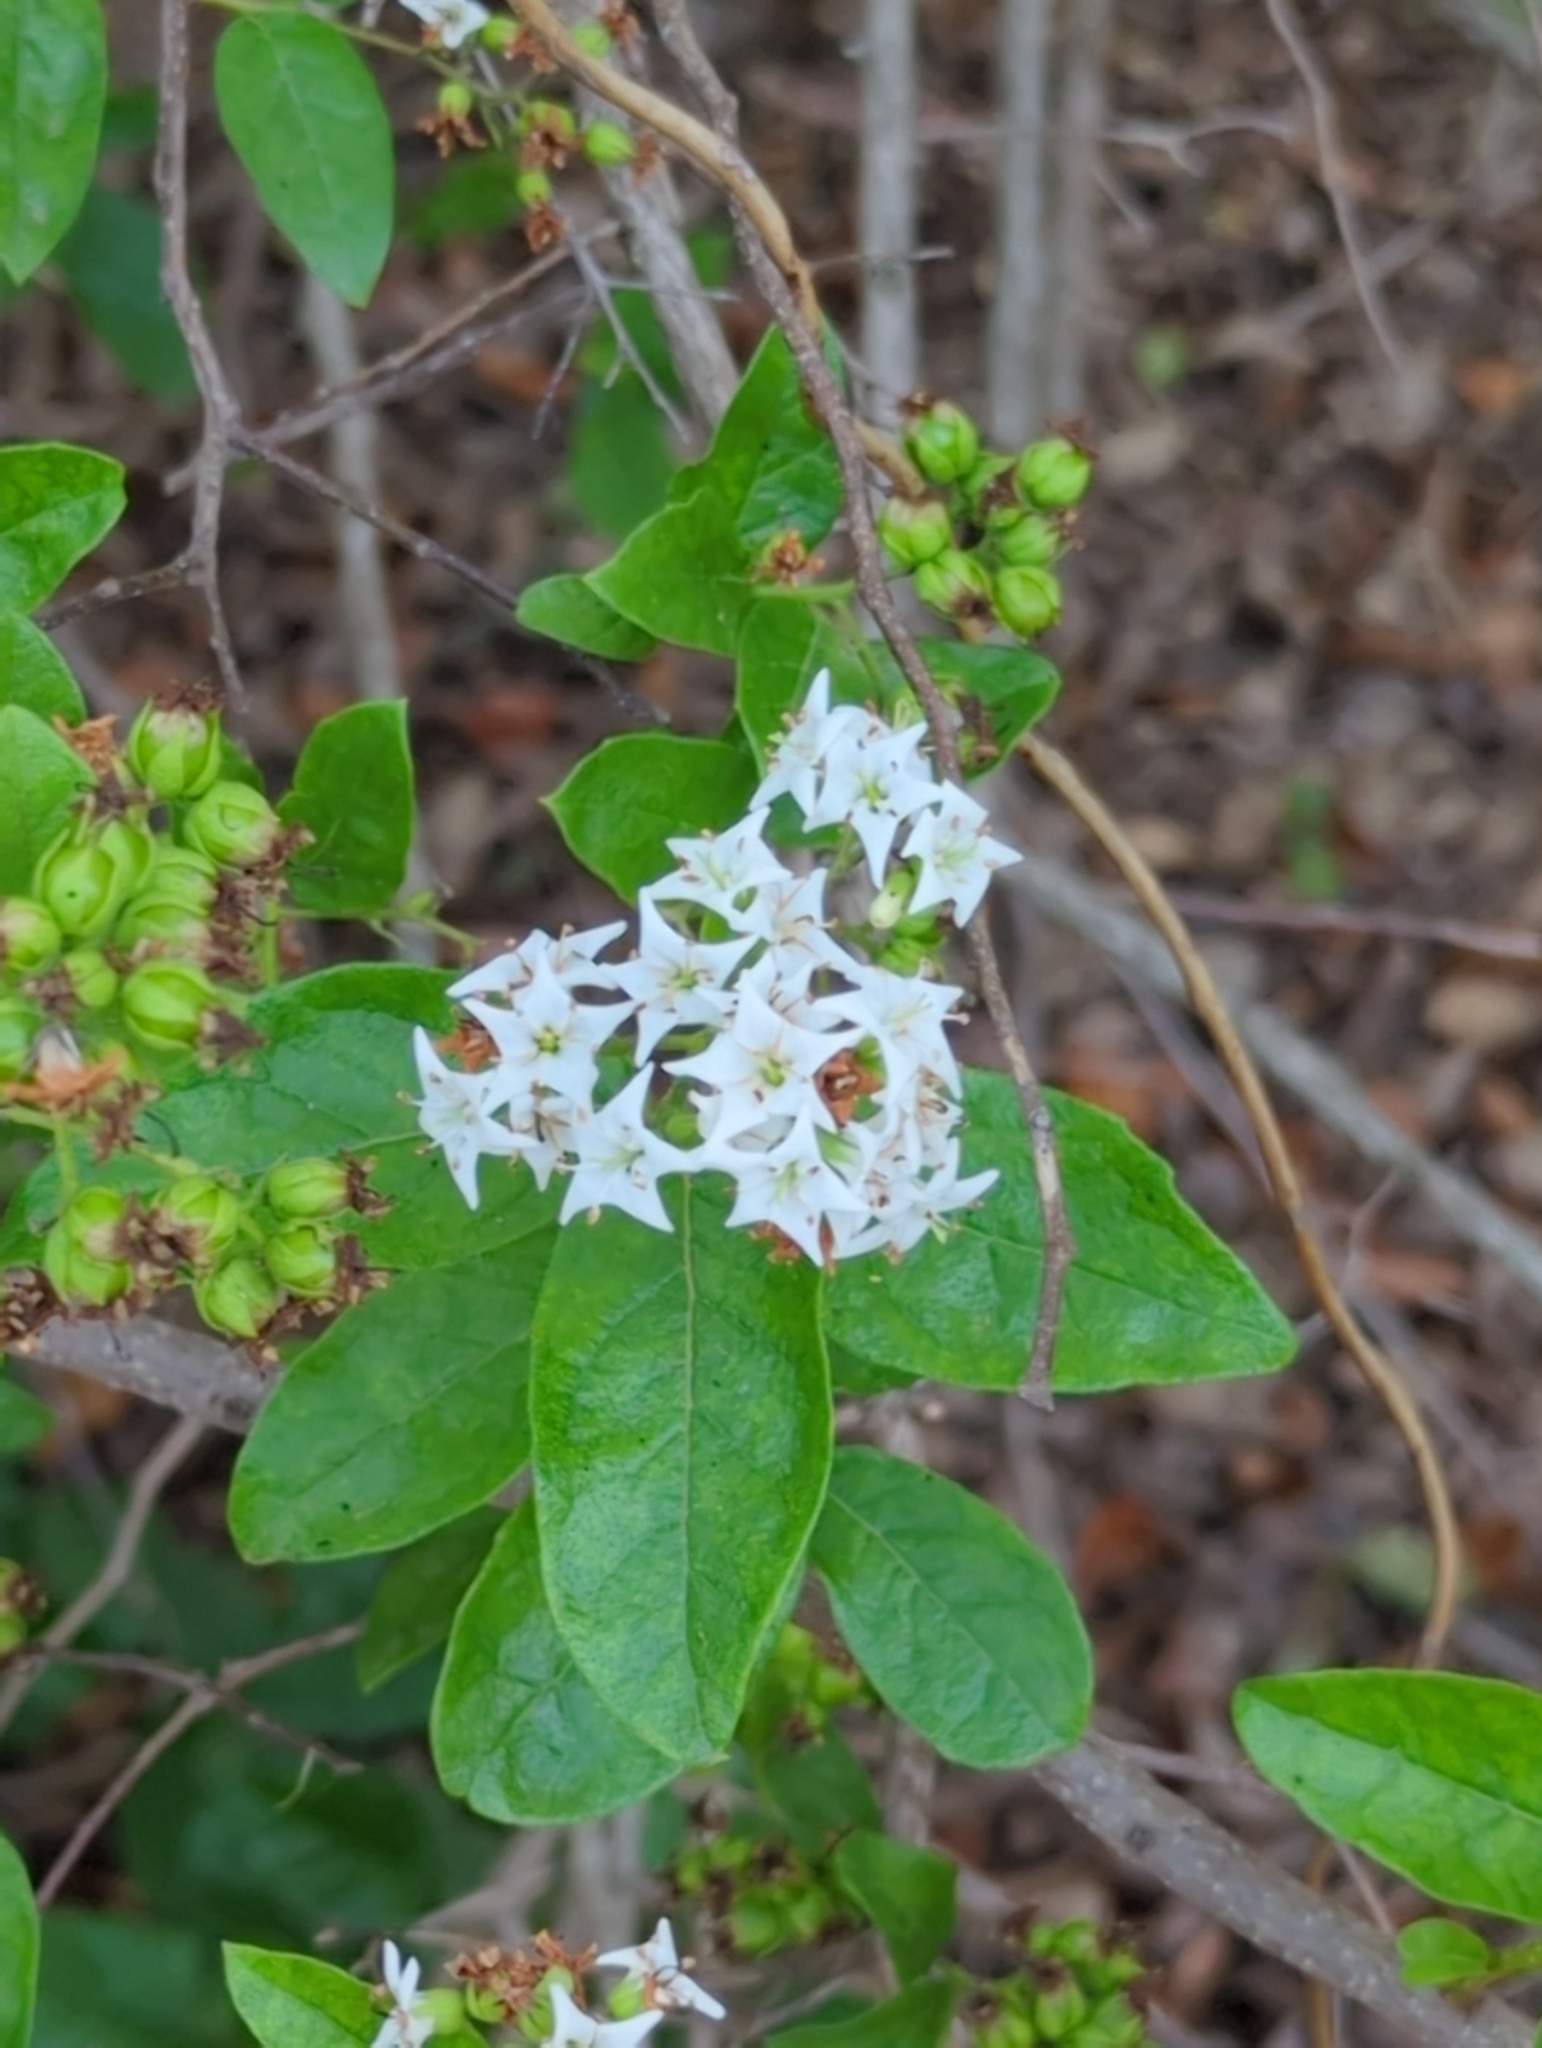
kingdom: Plantae
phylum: Tracheophyta
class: Magnoliopsida
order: Boraginales
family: Ehretiaceae
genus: Ehretia
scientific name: Ehretia anacua
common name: Sugarberry
